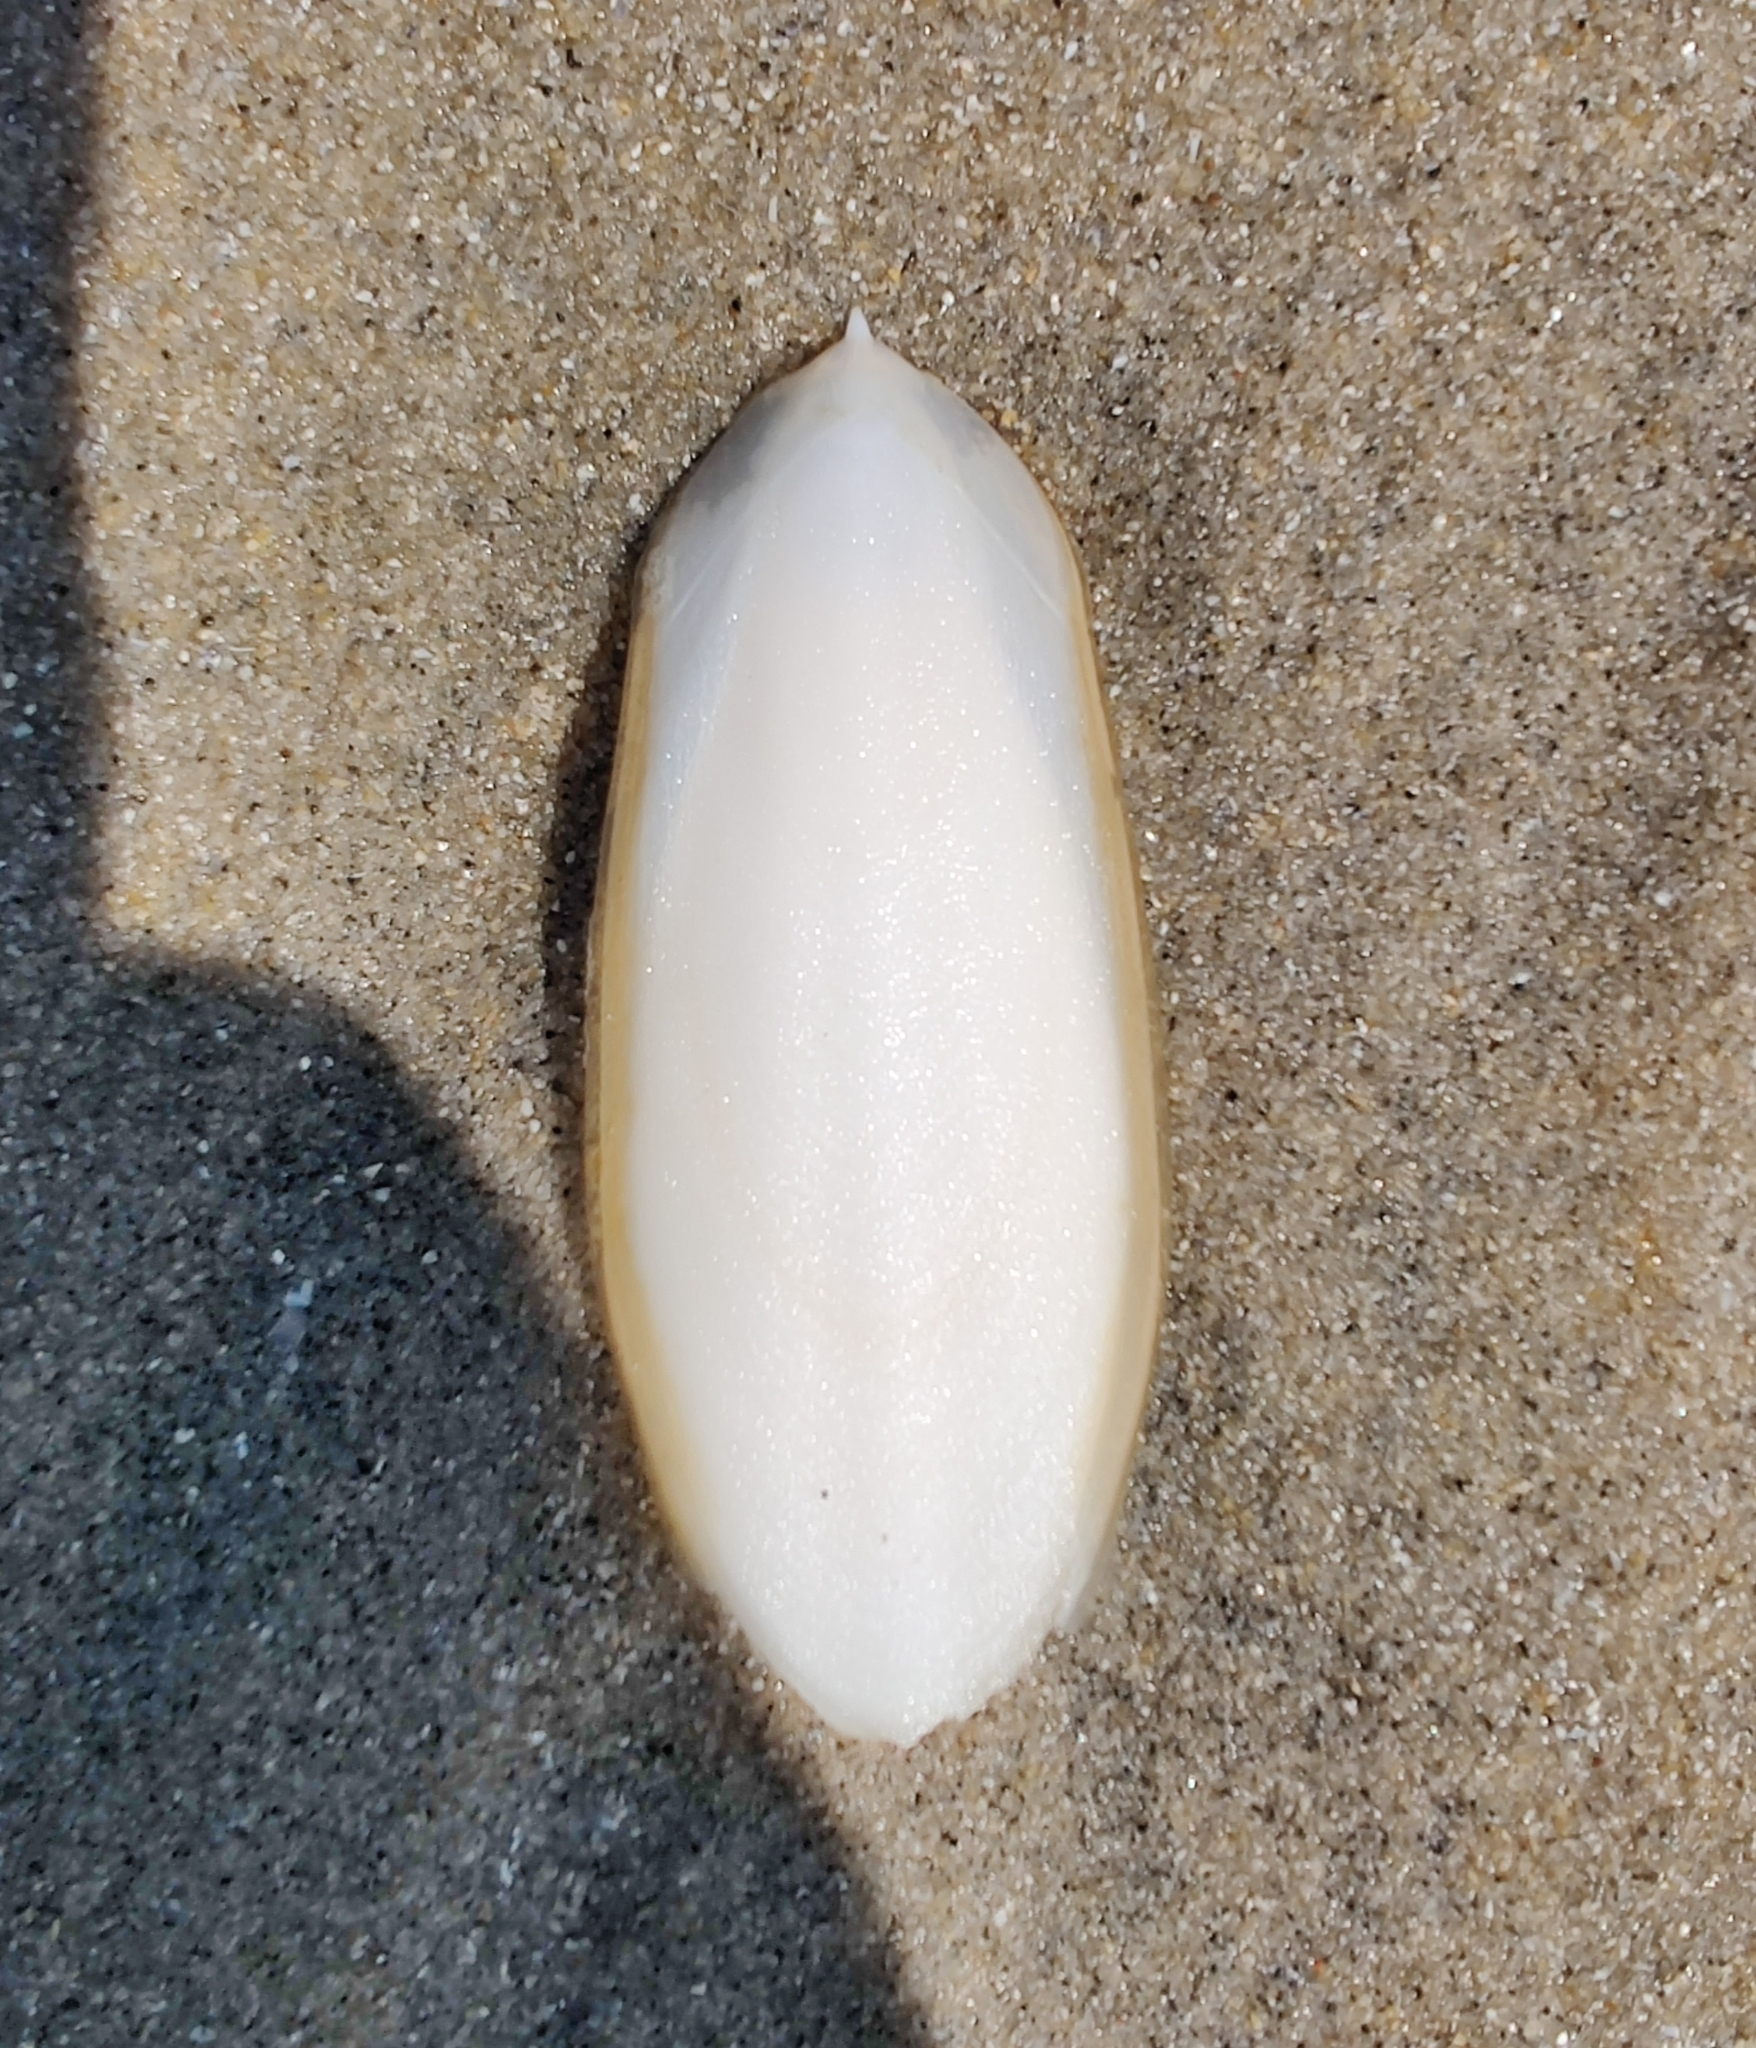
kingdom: Animalia
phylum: Mollusca
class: Cephalopoda
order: Sepiida
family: Sepiidae
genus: Sepia
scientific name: Sepia officinalis
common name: Common cuttlefish
